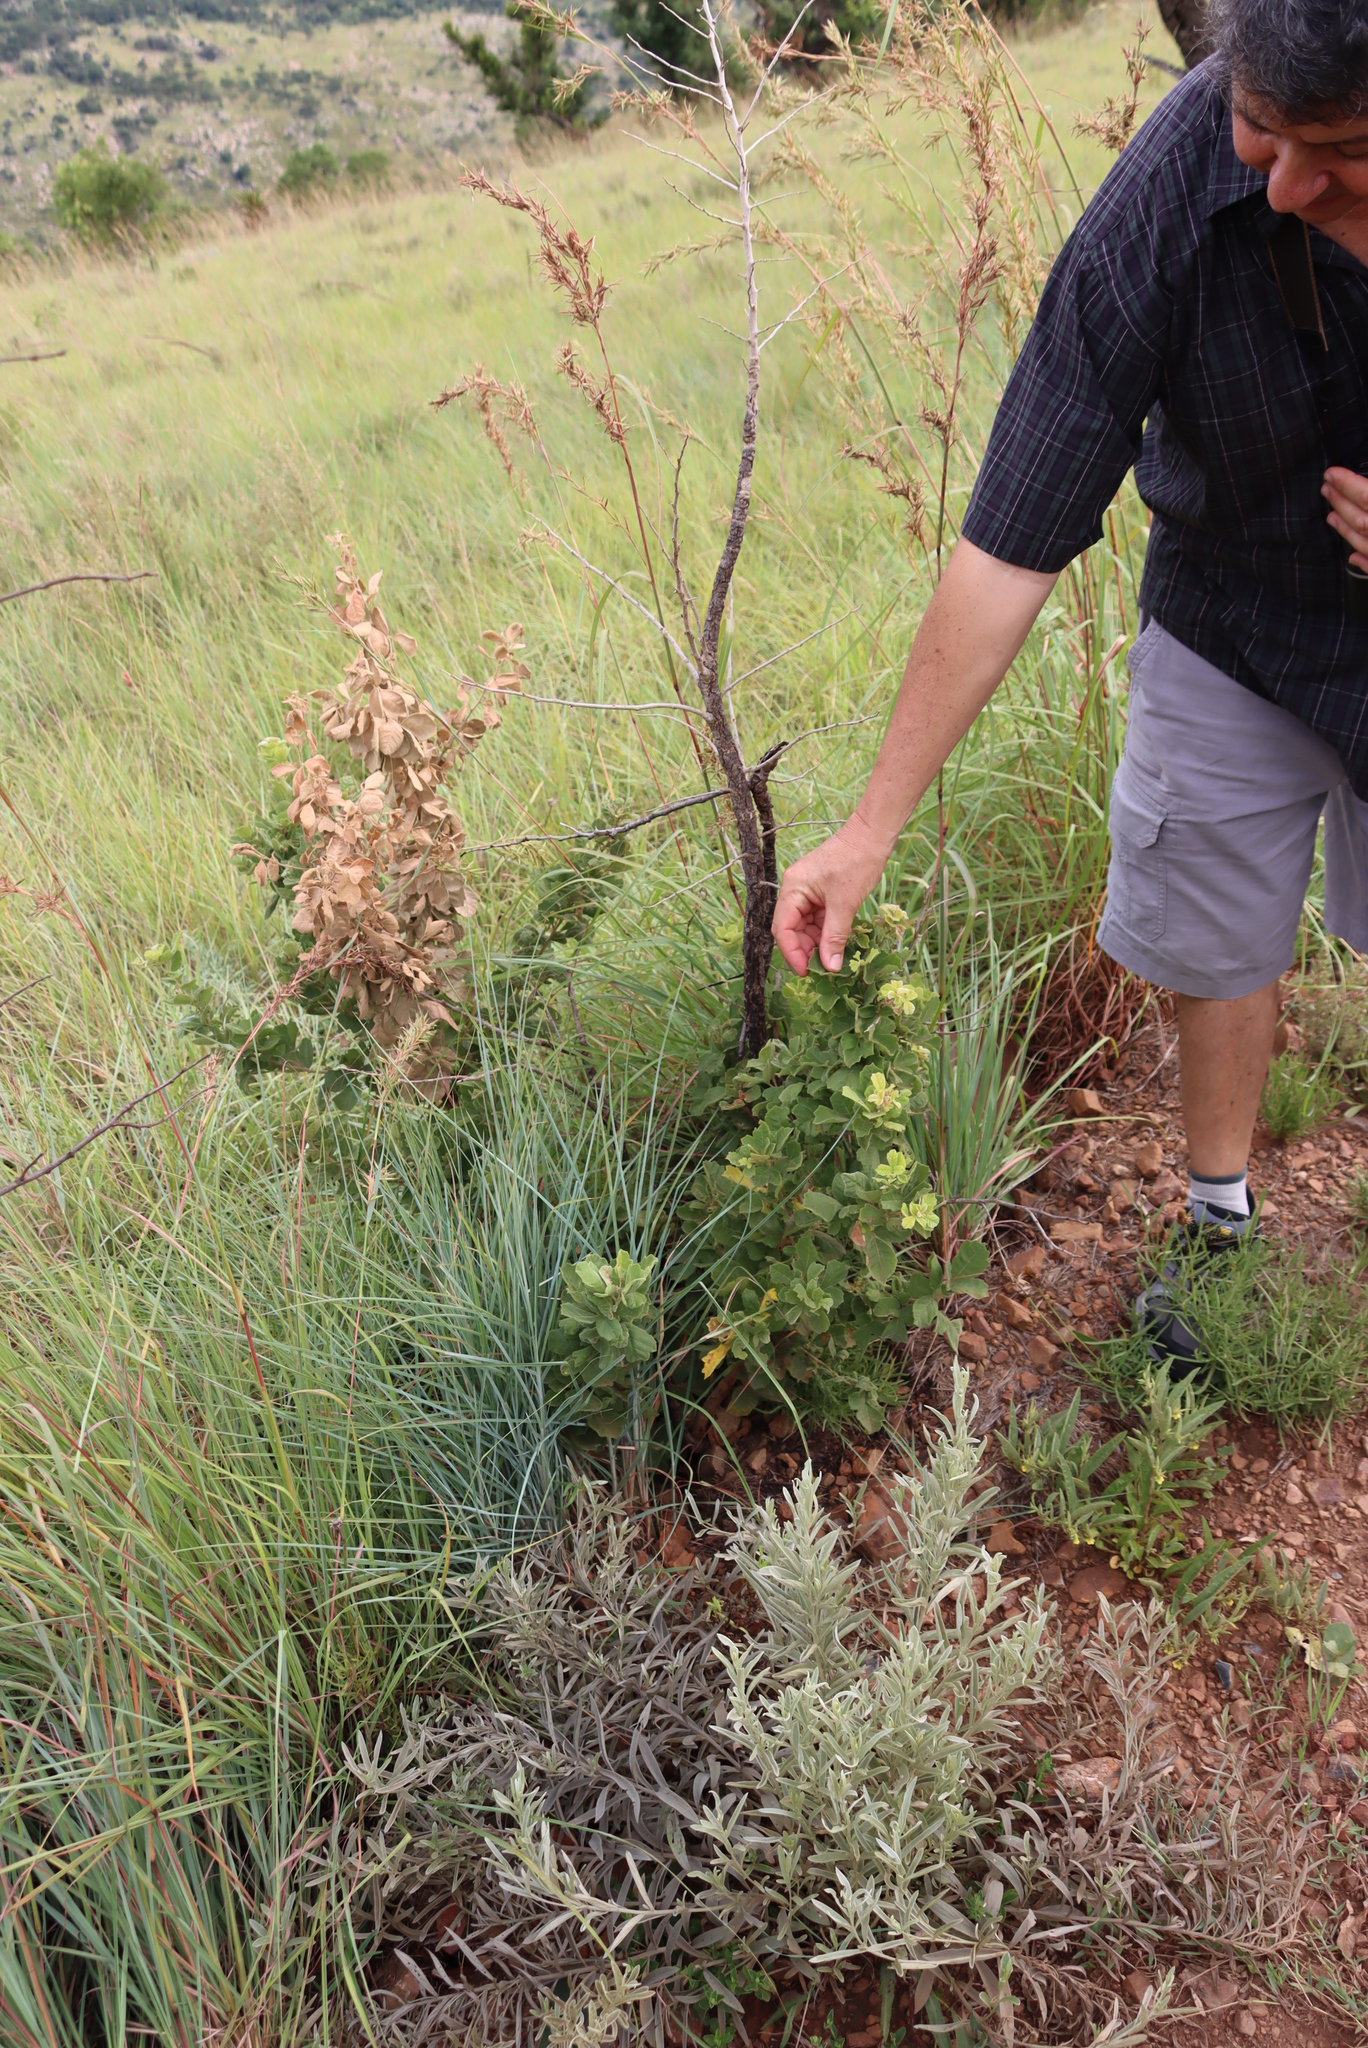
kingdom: Plantae
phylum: Tracheophyta
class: Magnoliopsida
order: Sapindales
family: Anacardiaceae
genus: Searsia
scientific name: Searsia rehmanniana
